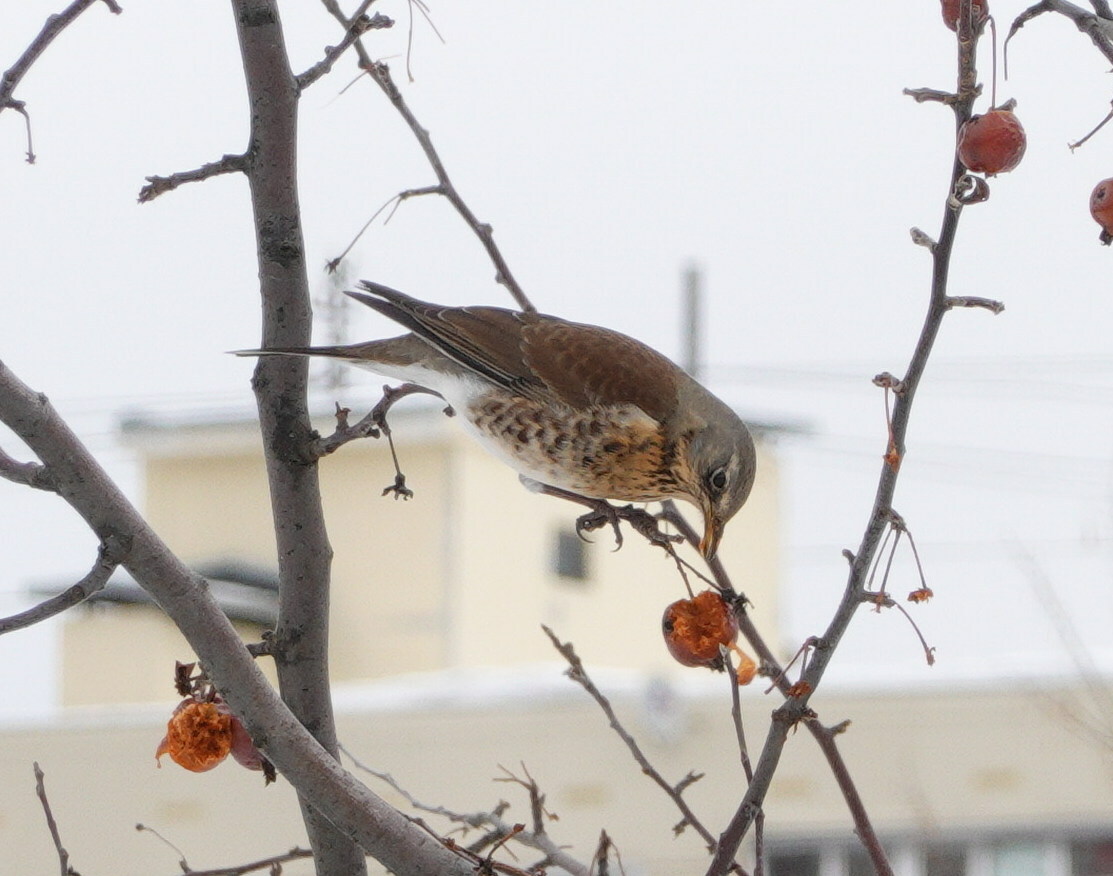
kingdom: Animalia
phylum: Chordata
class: Aves
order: Passeriformes
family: Turdidae
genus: Turdus
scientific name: Turdus pilaris
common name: Fieldfare
